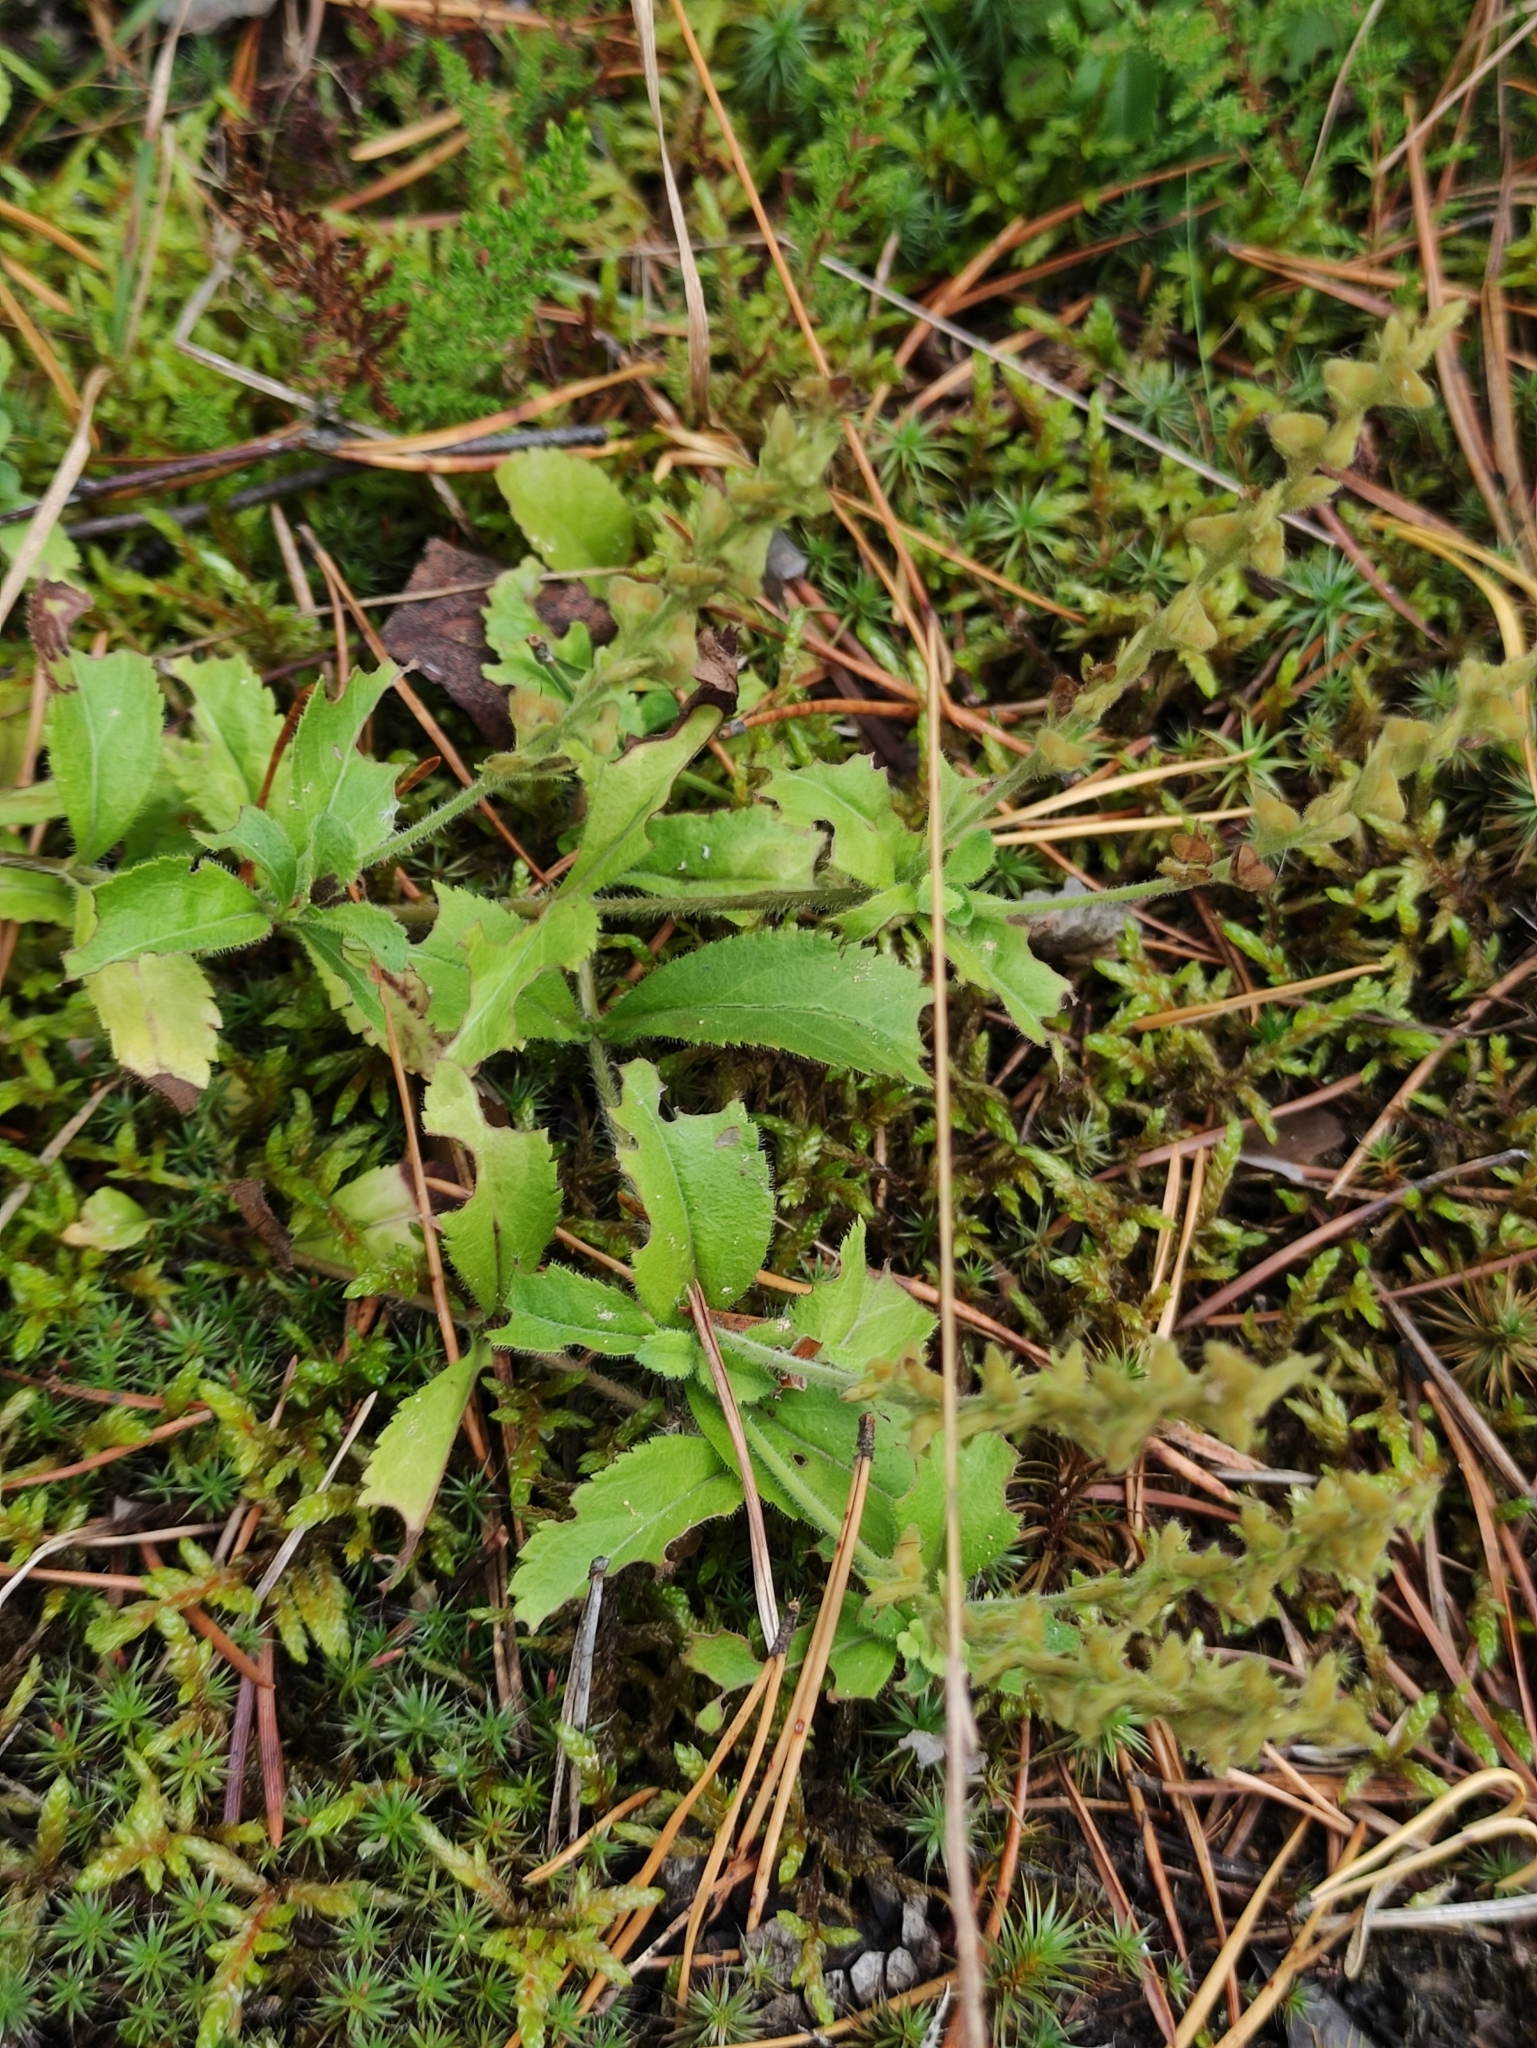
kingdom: Plantae
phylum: Tracheophyta
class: Magnoliopsida
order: Lamiales
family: Plantaginaceae
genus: Veronica
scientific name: Veronica officinalis
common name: Common speedwell
